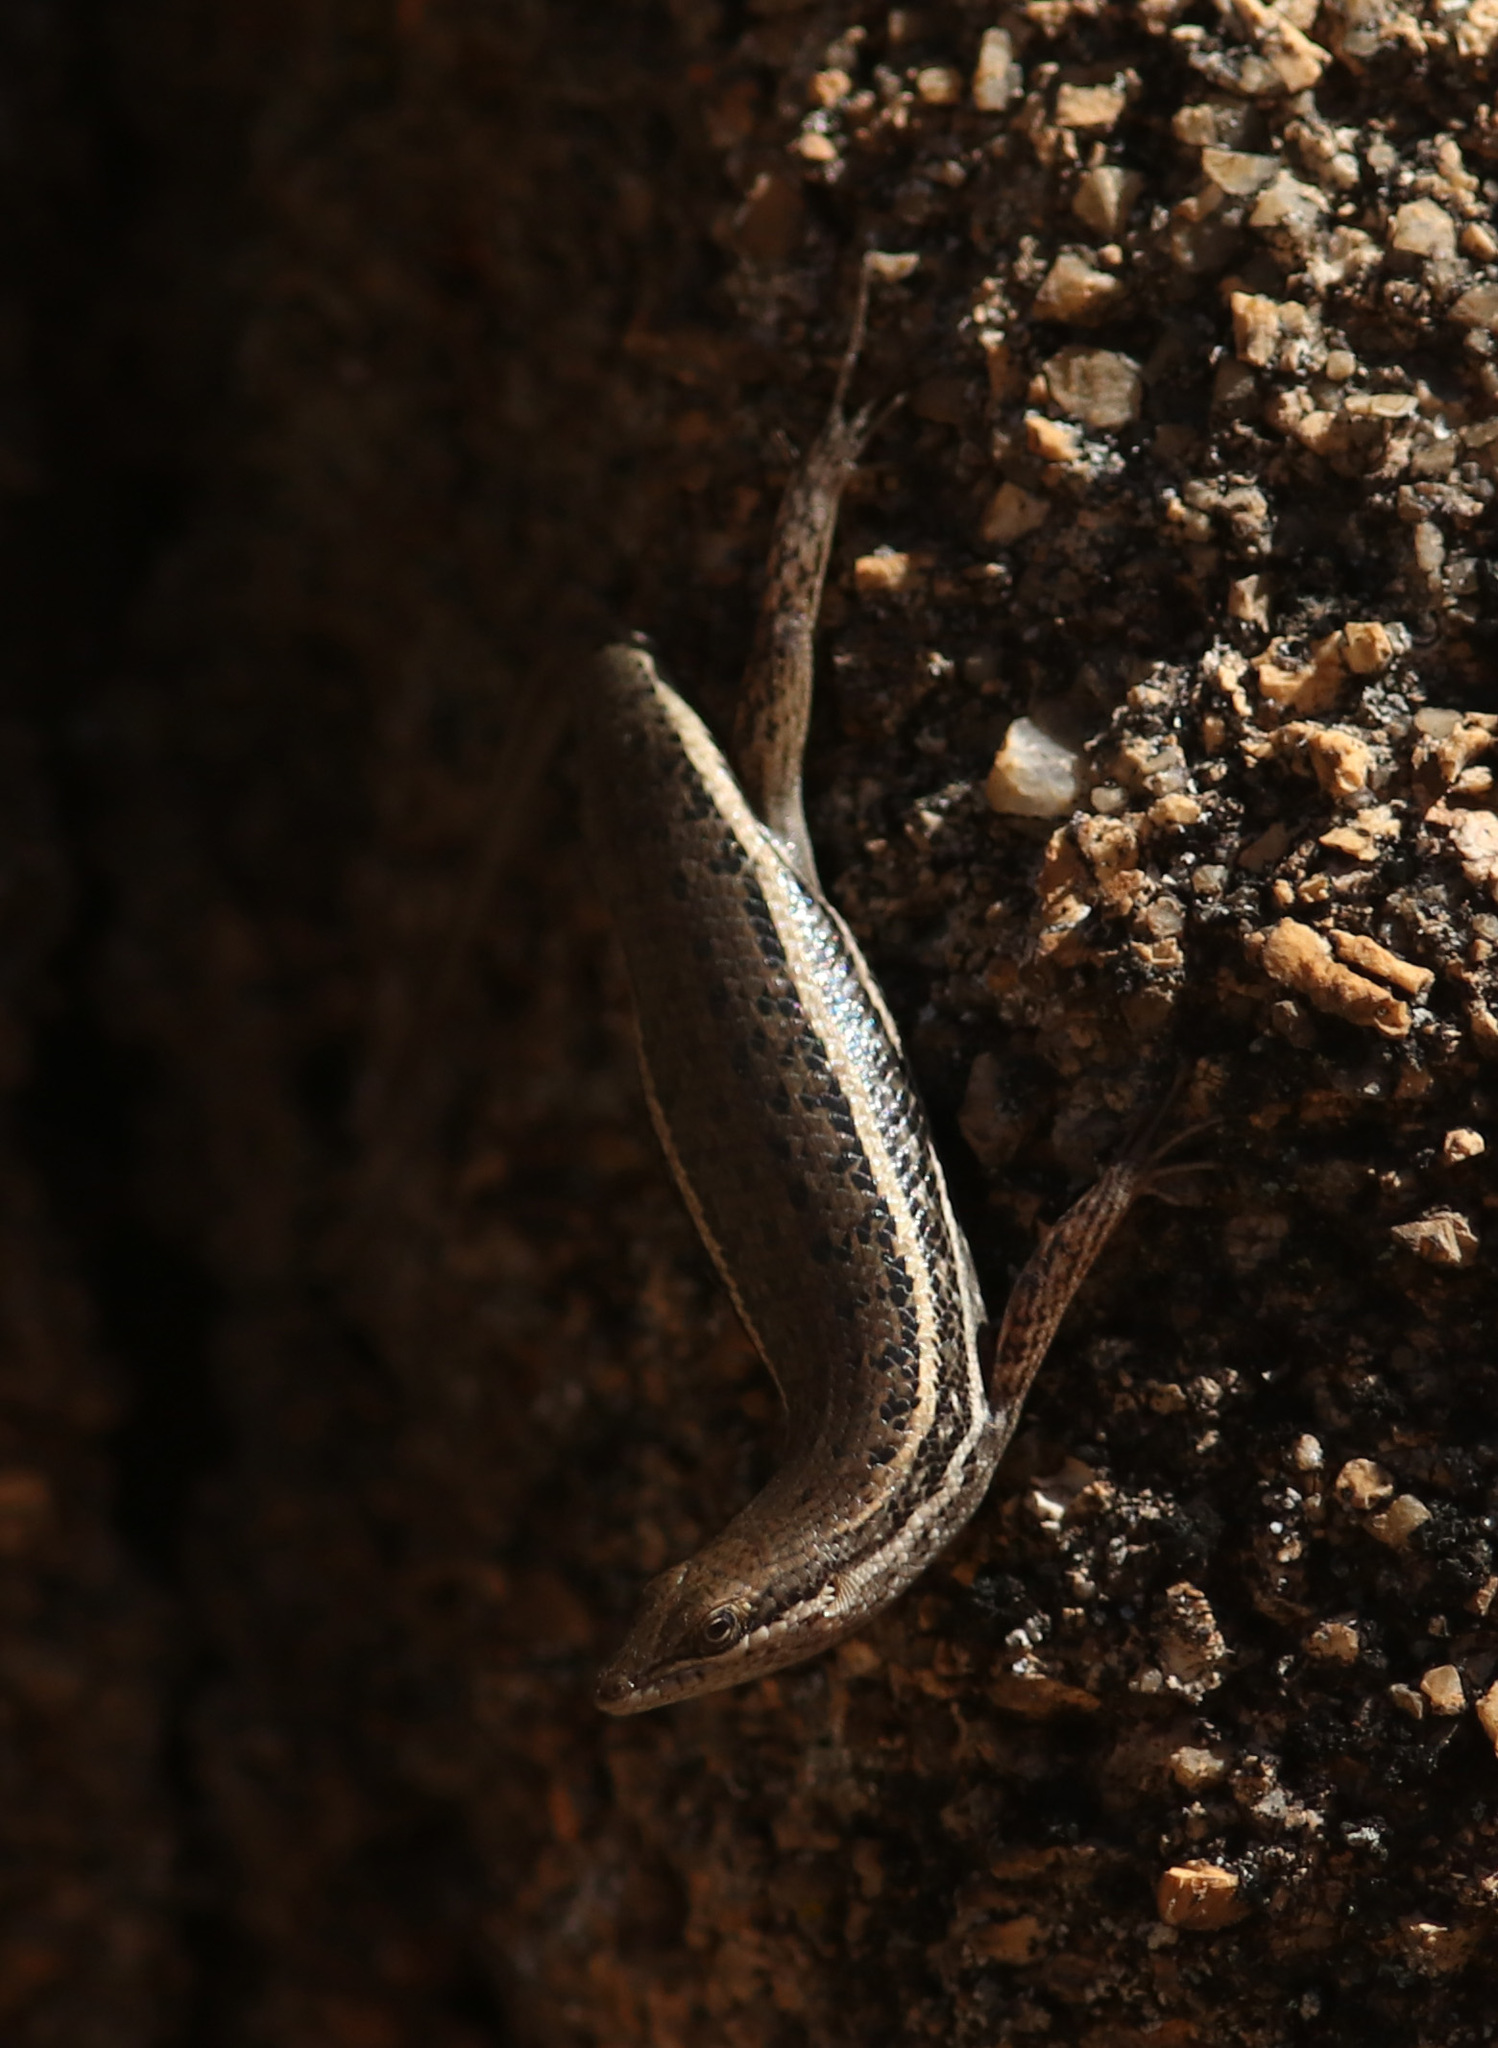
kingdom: Animalia
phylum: Chordata
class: Squamata
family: Scincidae
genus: Trachylepis
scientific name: Trachylepis variegata
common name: Variegated skink
